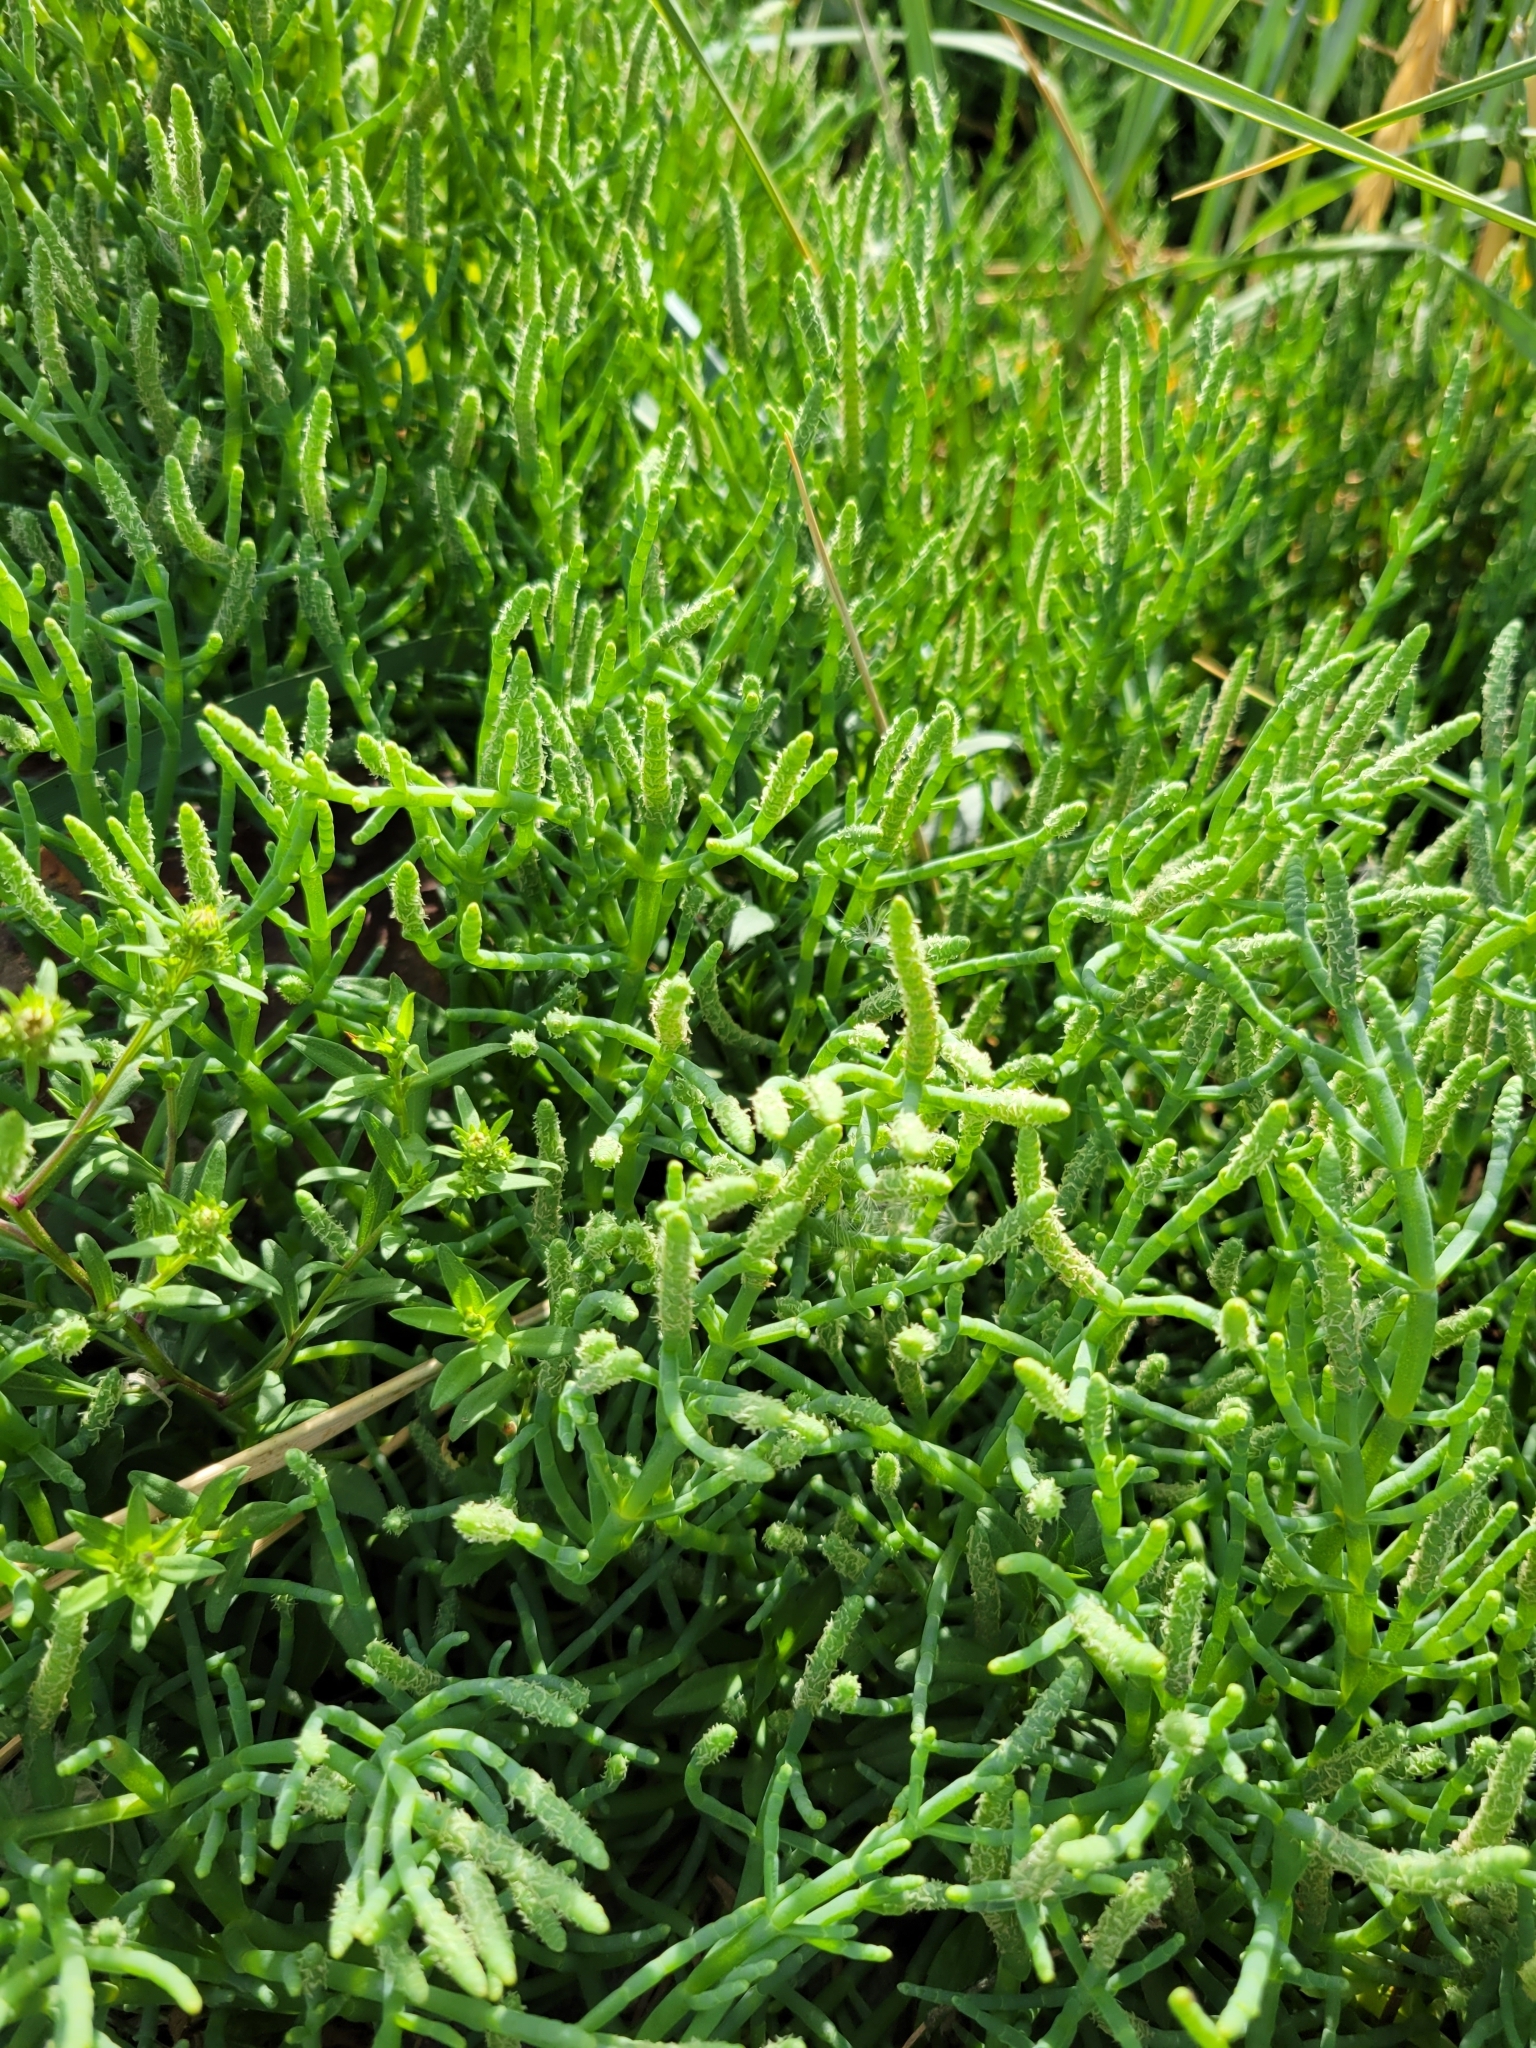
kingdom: Plantae
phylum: Tracheophyta
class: Magnoliopsida
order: Caryophyllales
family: Amaranthaceae
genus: Salicornia
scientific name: Salicornia pacifica
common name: Pacific glasswort
